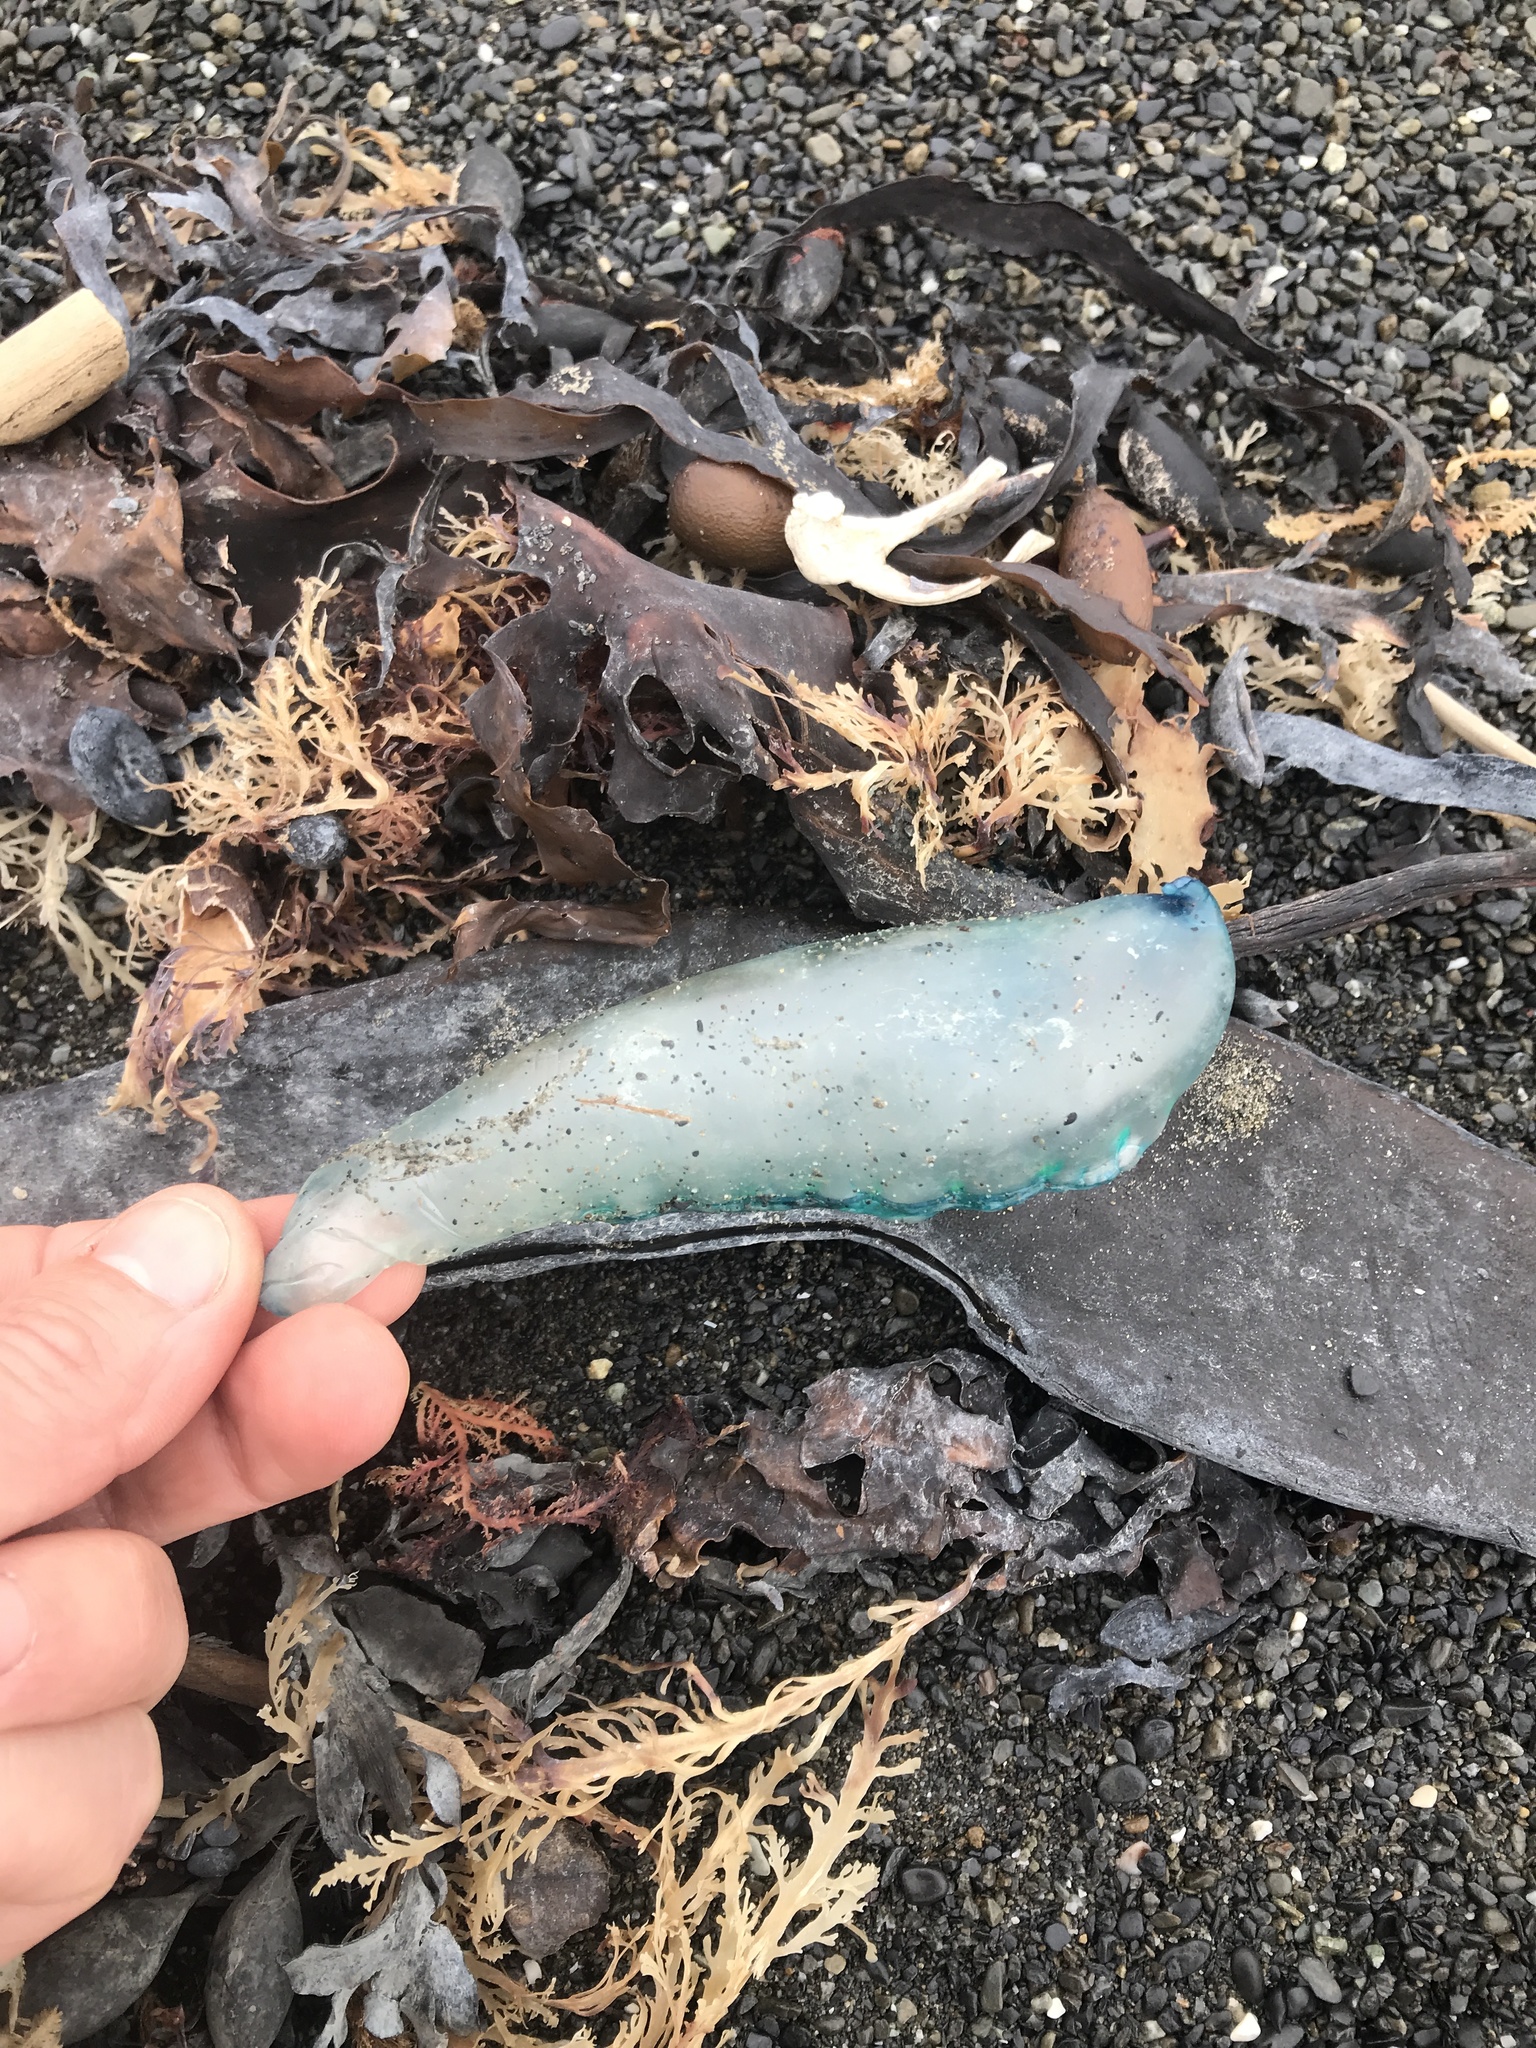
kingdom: Animalia
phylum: Cnidaria
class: Hydrozoa
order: Siphonophorae
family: Physaliidae
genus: Physalia
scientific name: Physalia physalis
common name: Portuguese man-of-war
